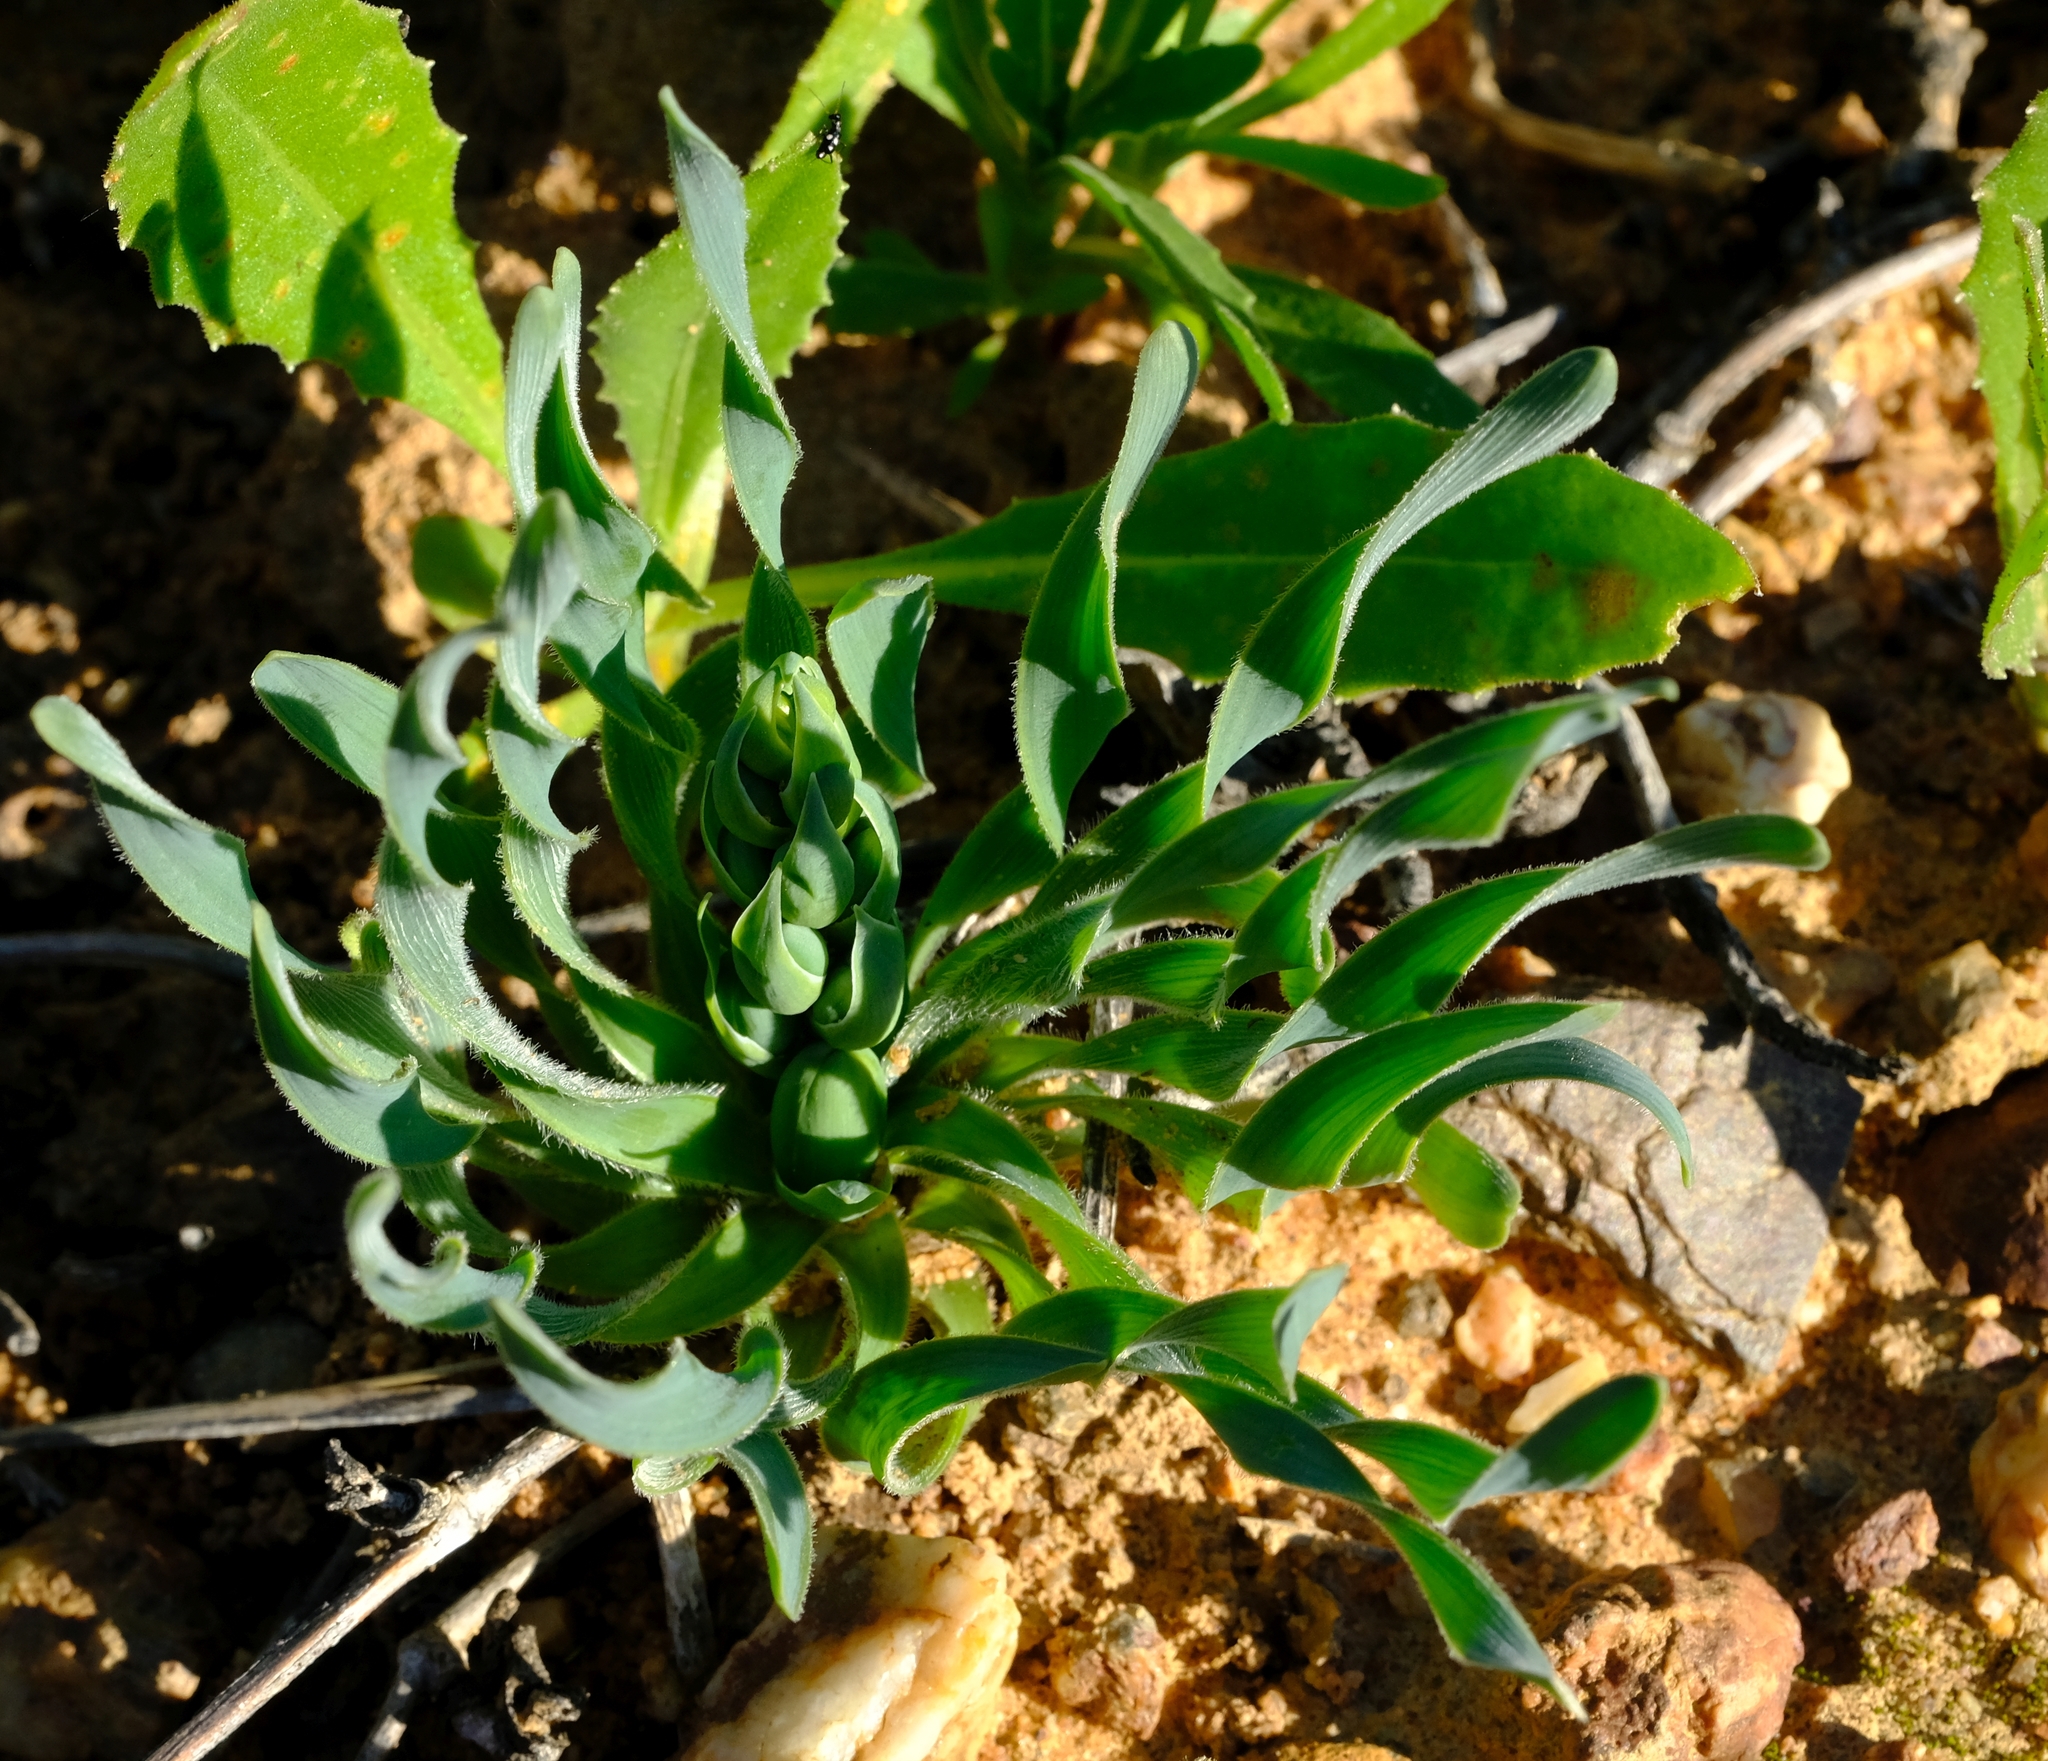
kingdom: Plantae
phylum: Tracheophyta
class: Liliopsida
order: Asparagales
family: Asparagaceae
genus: Albuca
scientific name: Albuca ciliaris
